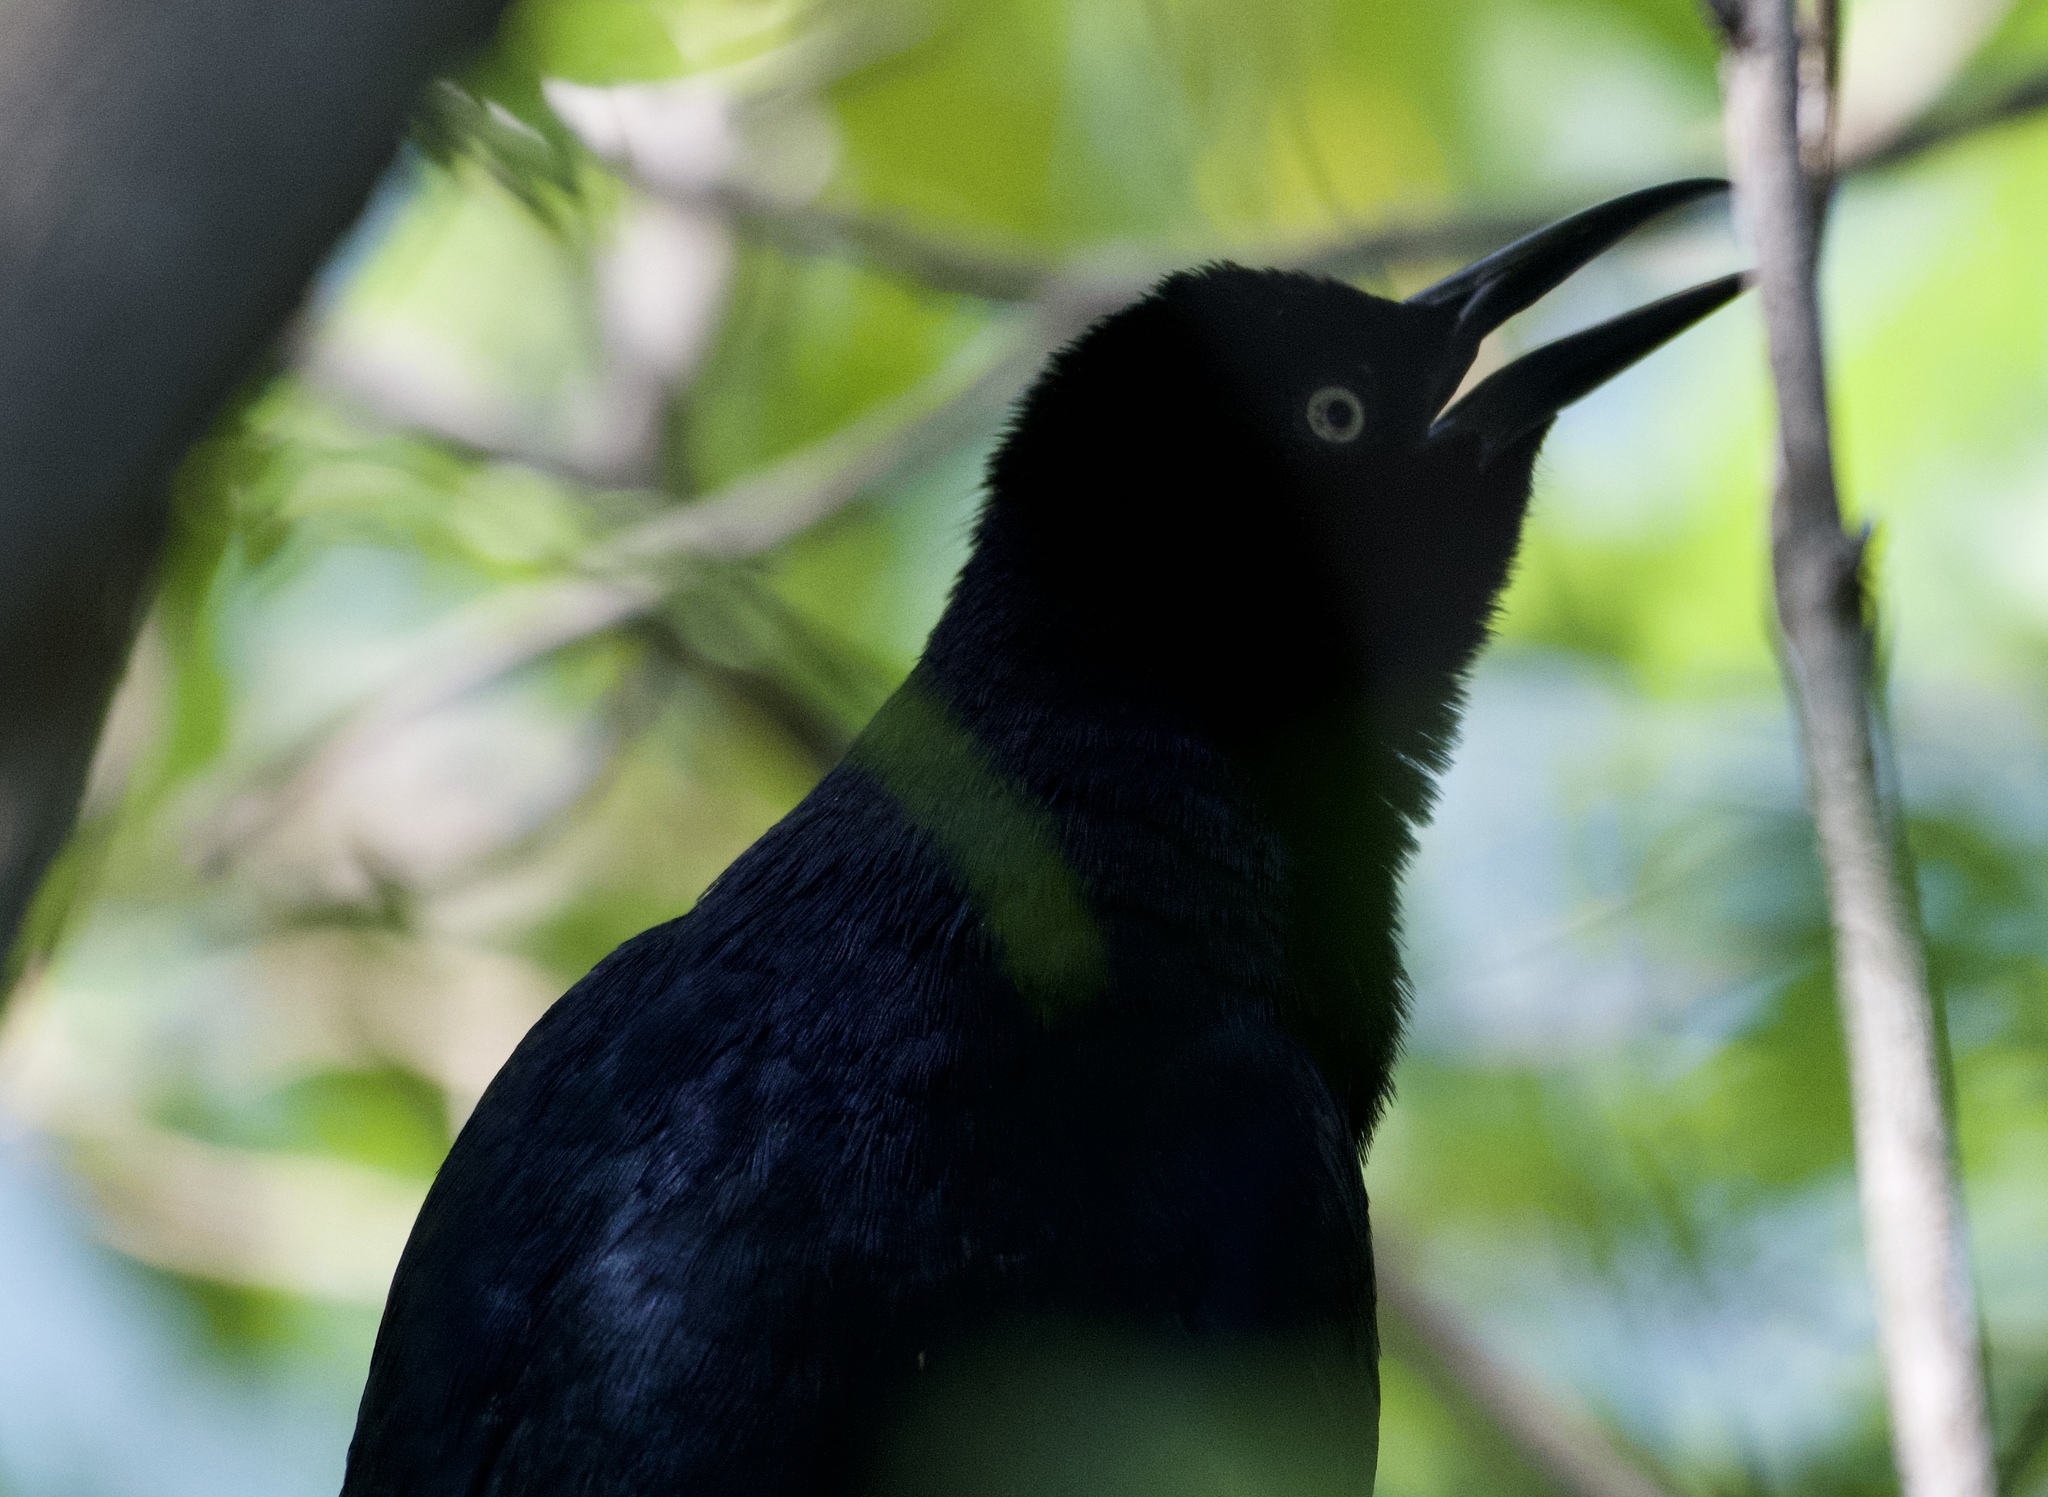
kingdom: Animalia
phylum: Chordata
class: Aves
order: Passeriformes
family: Icteridae
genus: Quiscalus
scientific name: Quiscalus mexicanus
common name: Great-tailed grackle
